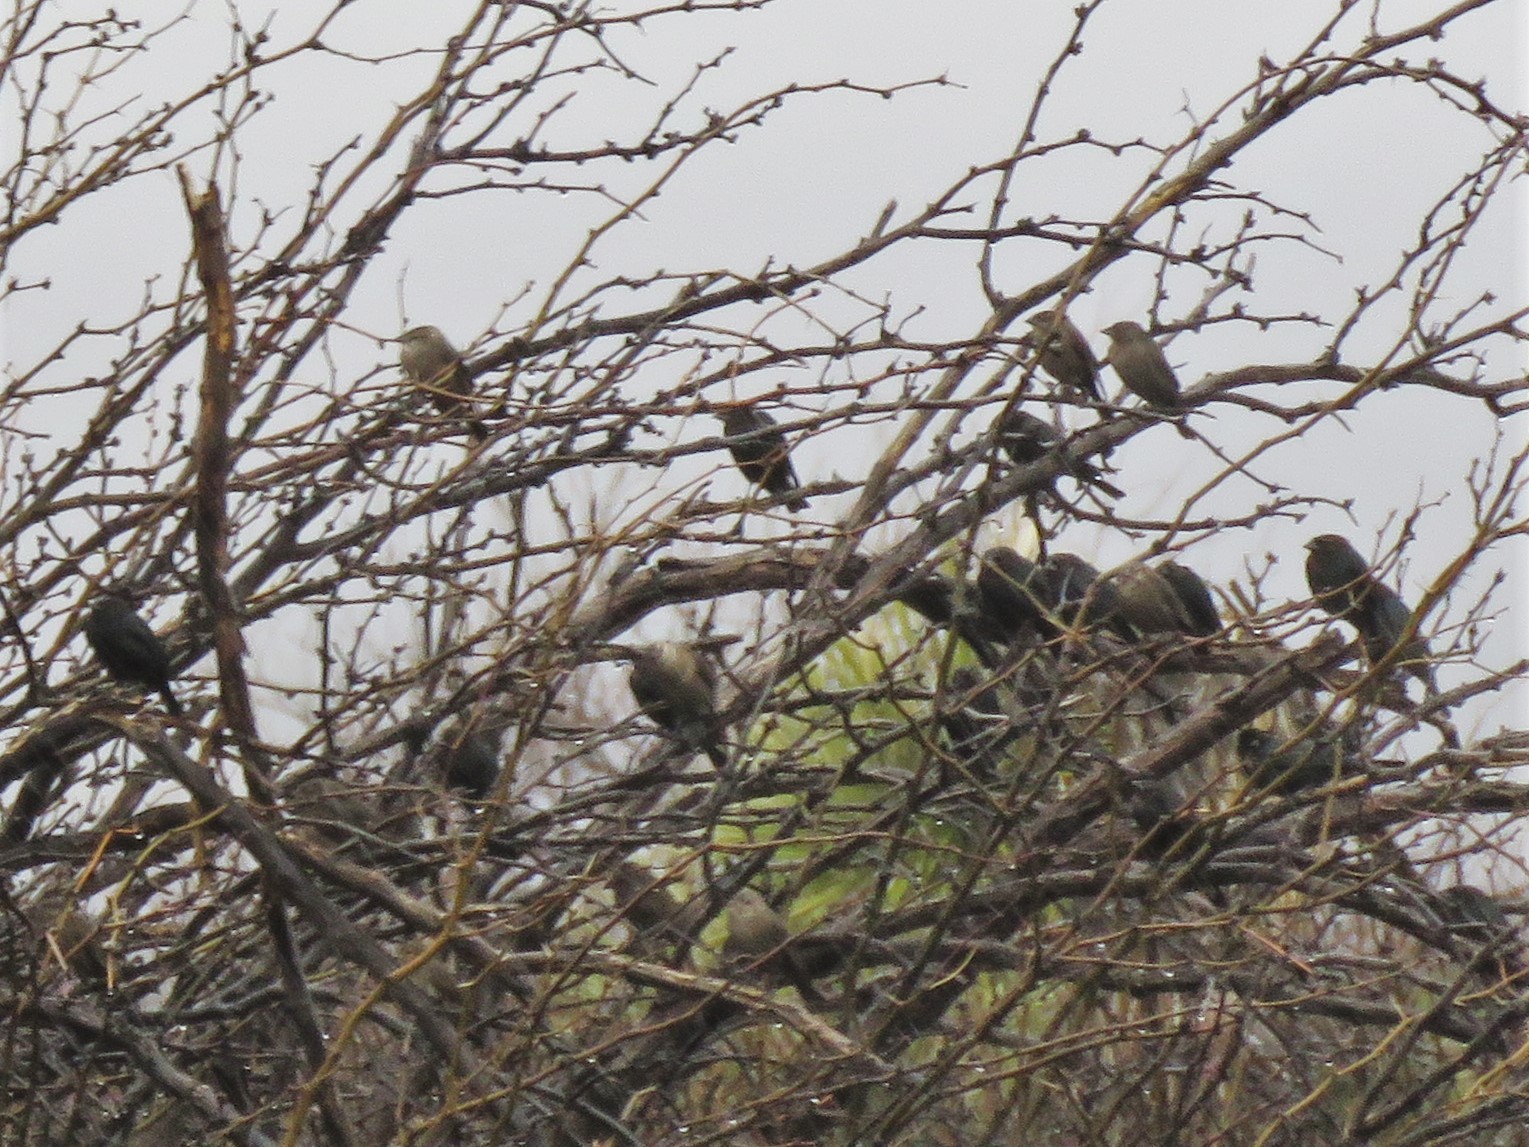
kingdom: Animalia
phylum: Chordata
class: Aves
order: Passeriformes
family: Icteridae
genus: Molothrus
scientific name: Molothrus ater
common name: Brown-headed cowbird
